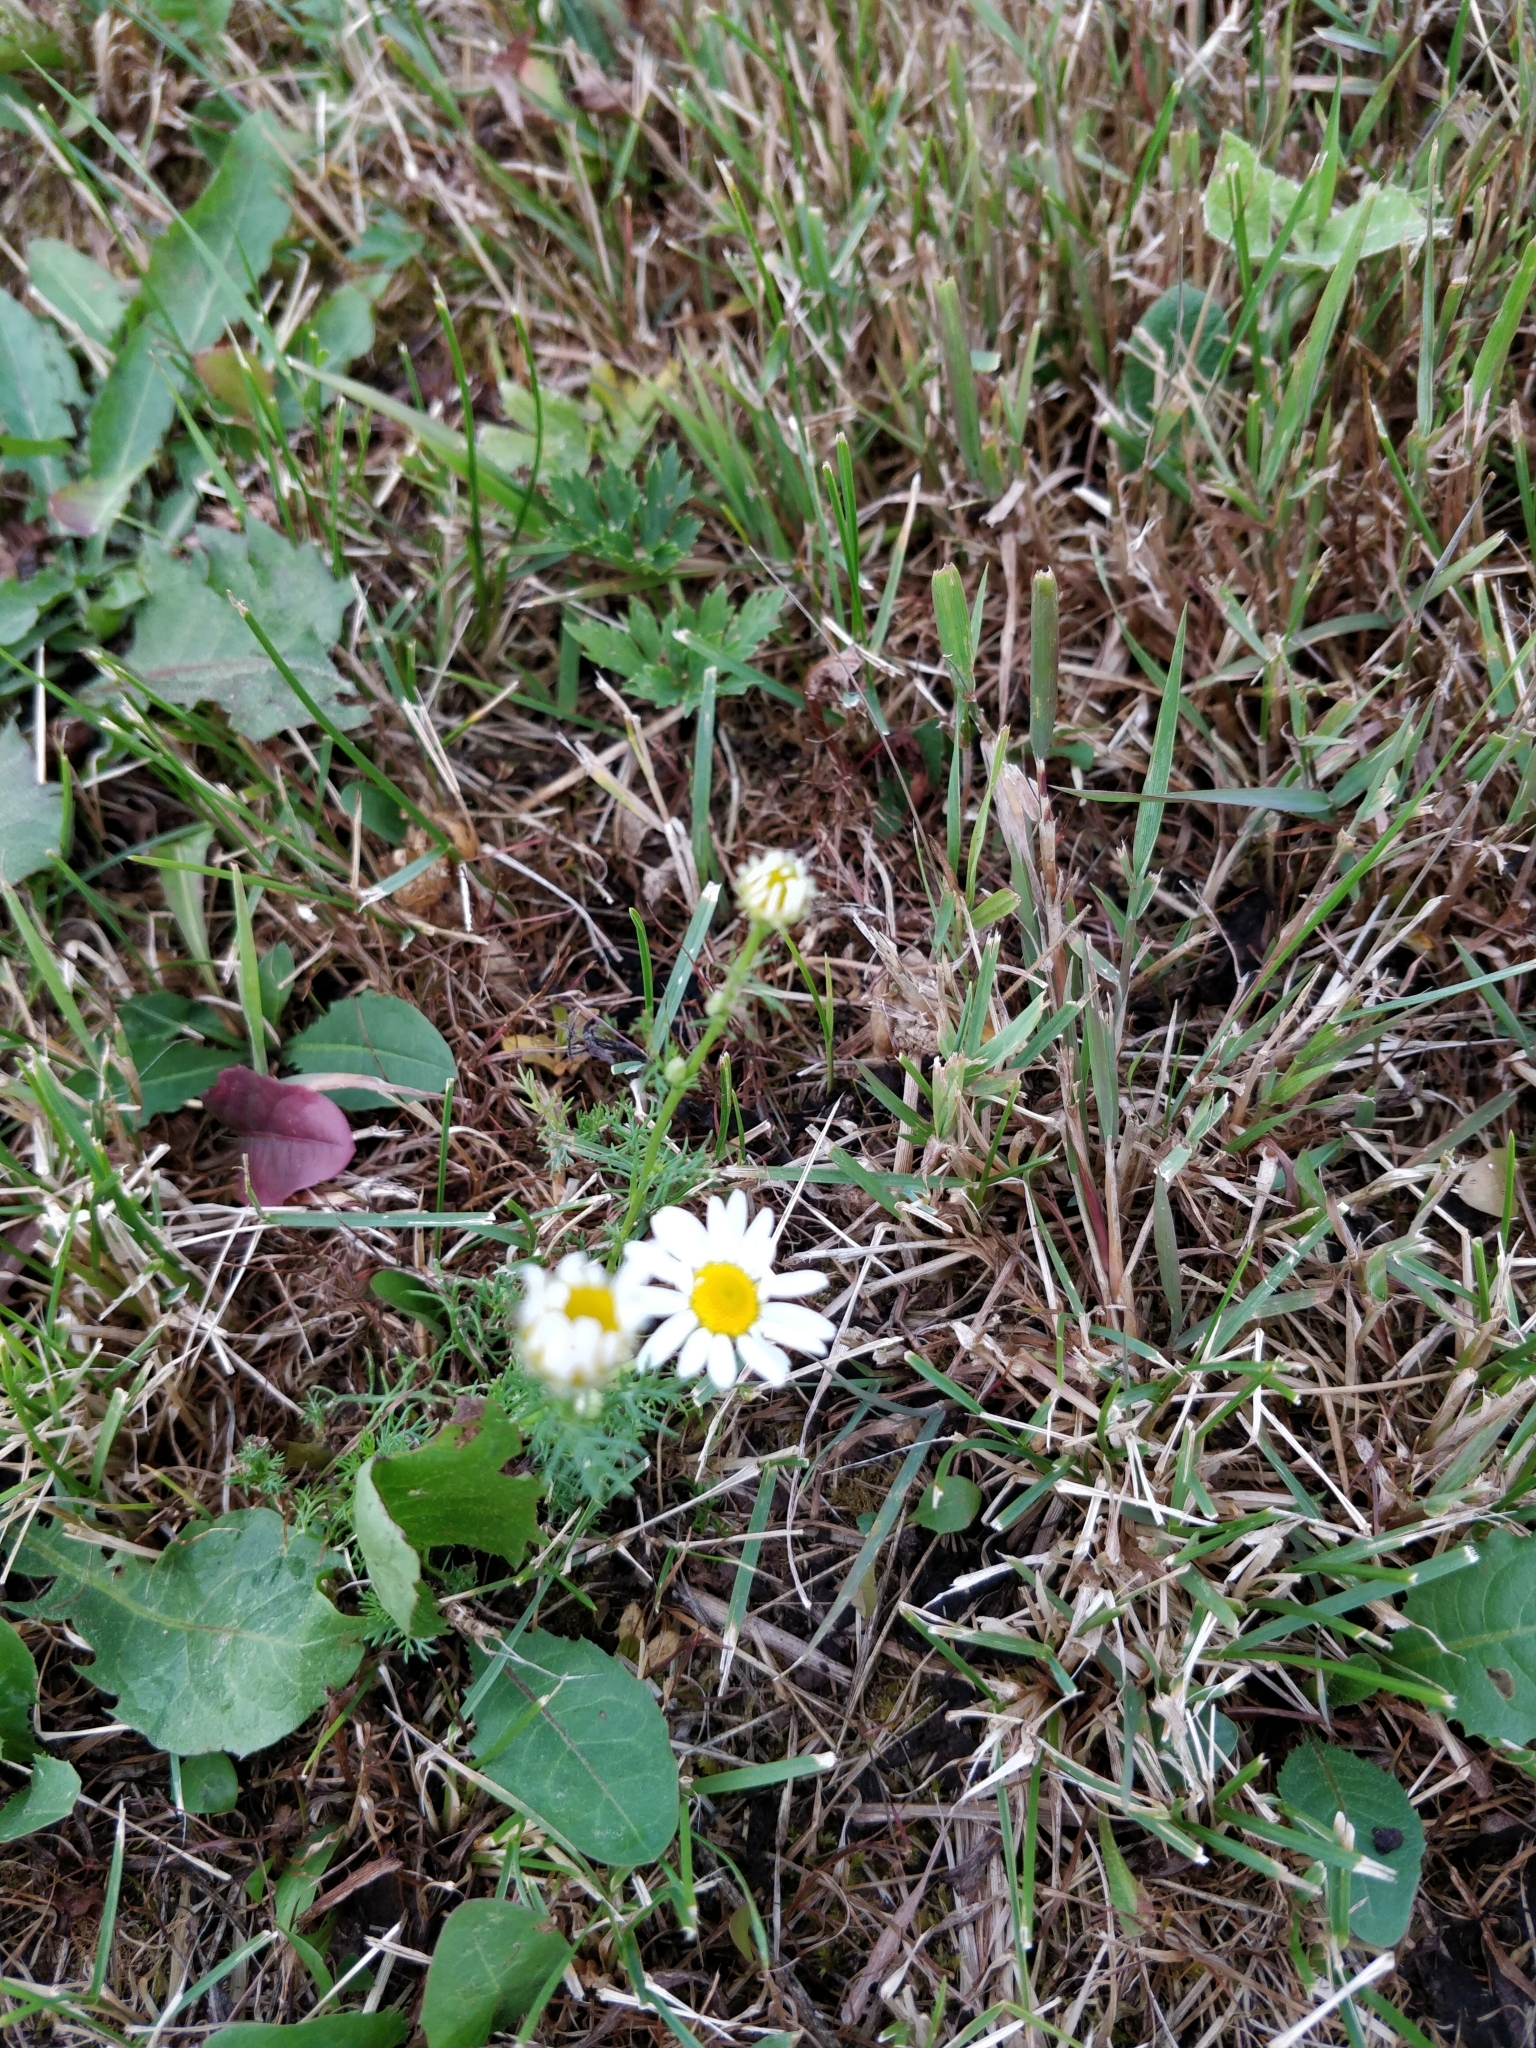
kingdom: Plantae
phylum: Tracheophyta
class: Magnoliopsida
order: Asterales
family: Asteraceae
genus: Tripleurospermum
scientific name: Tripleurospermum inodorum
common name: Scentless mayweed
